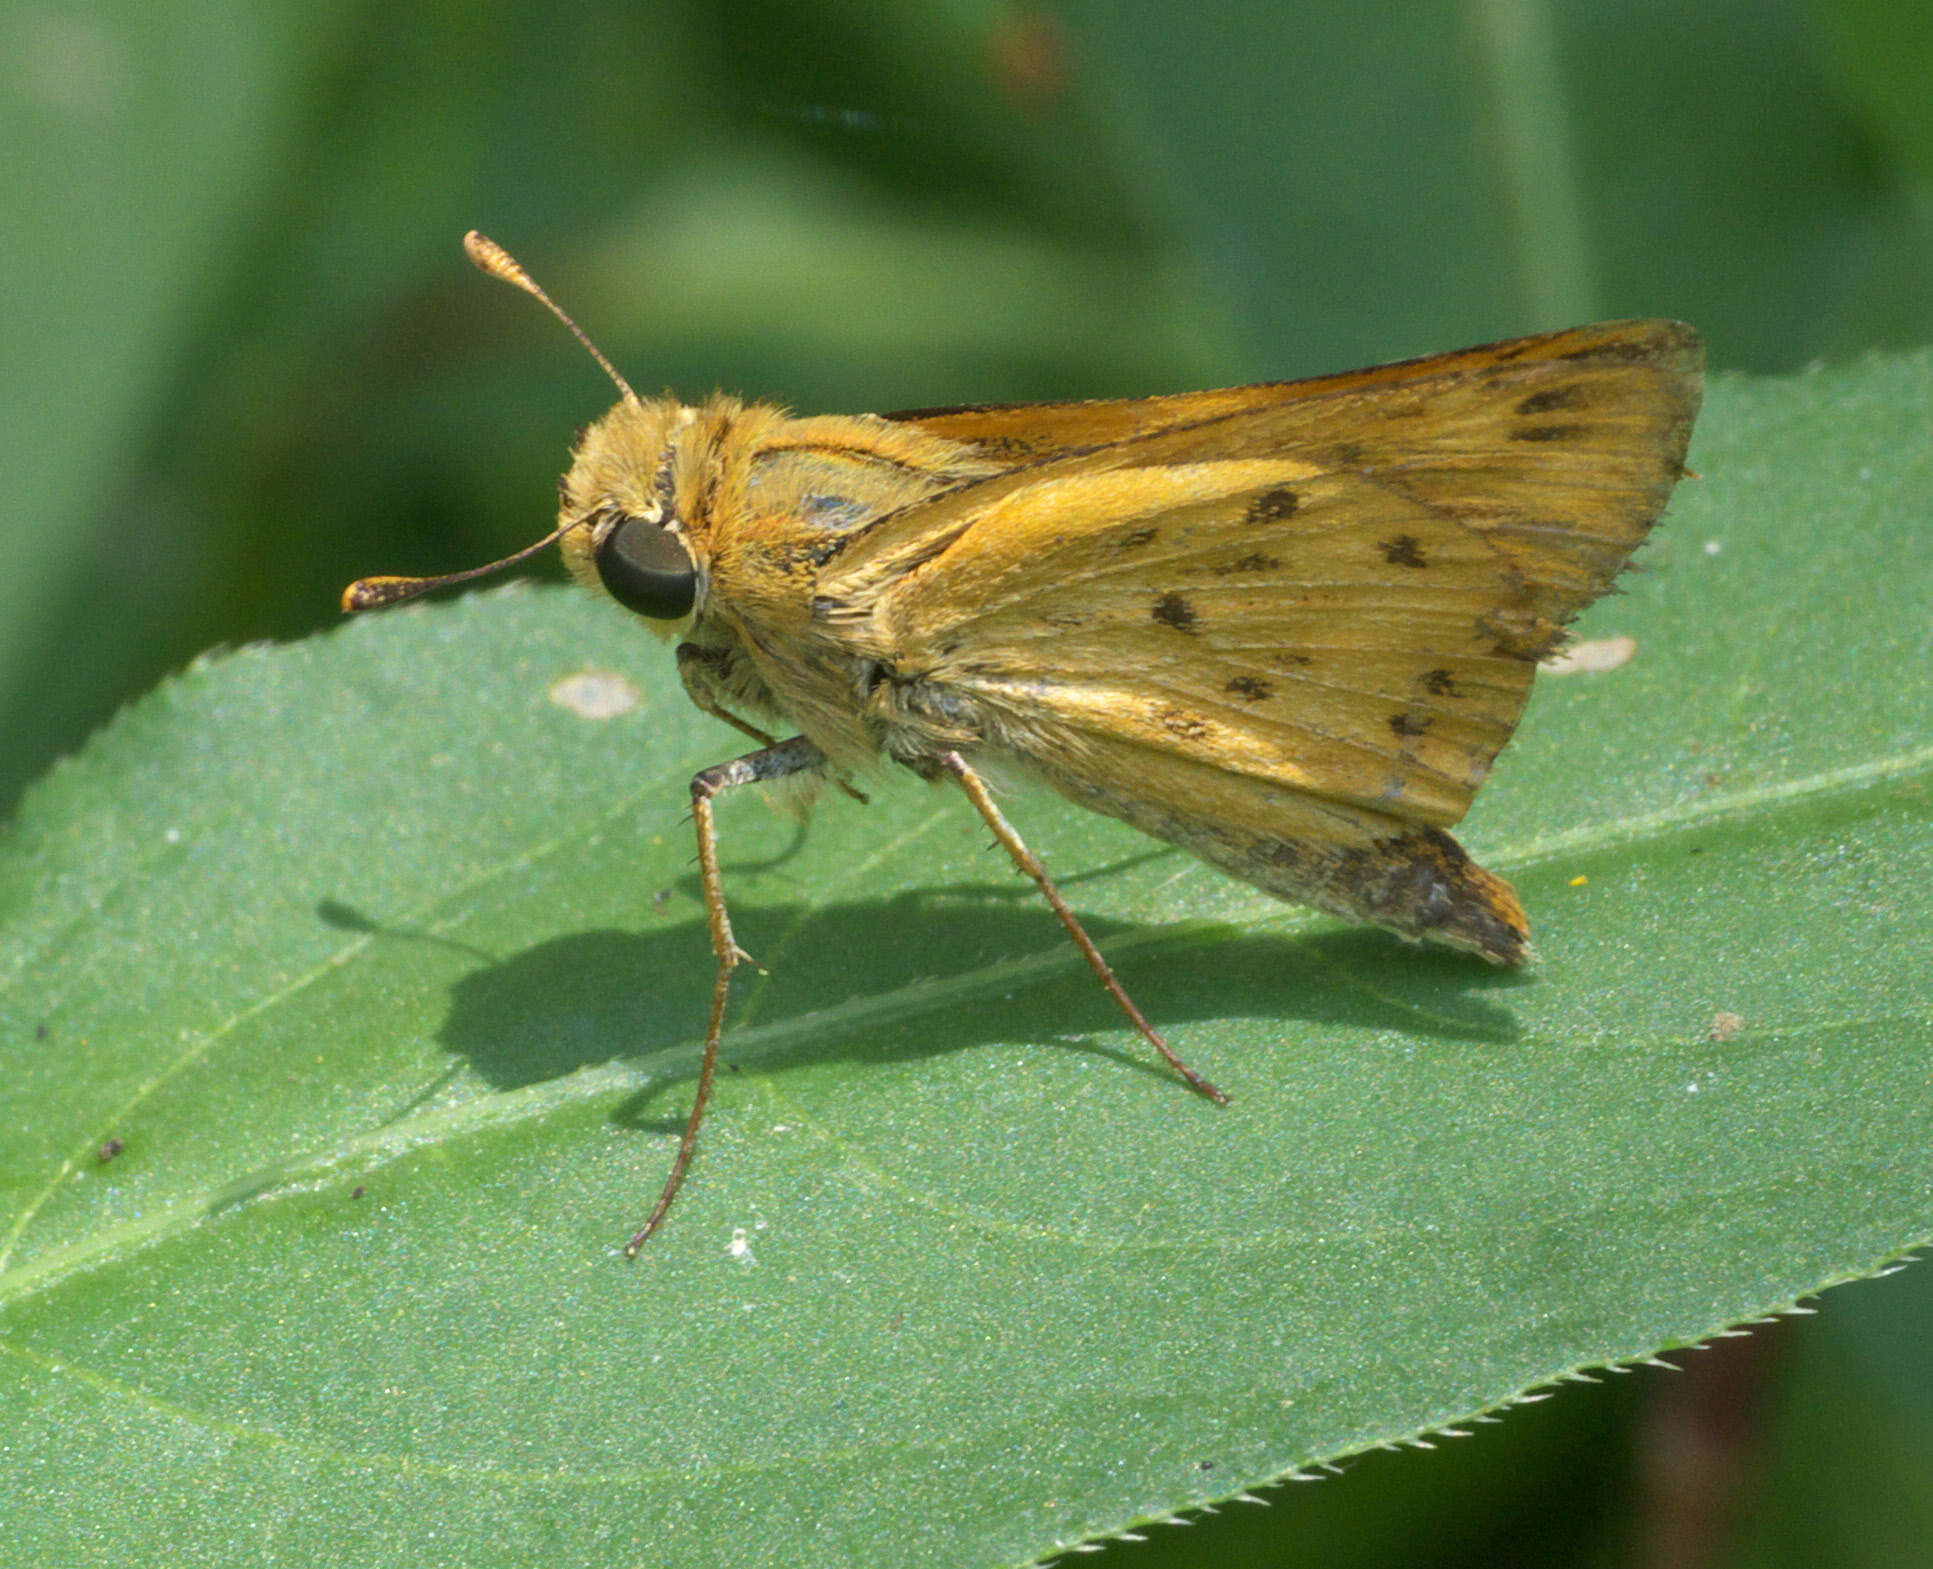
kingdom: Animalia
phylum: Arthropoda
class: Insecta
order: Lepidoptera
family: Hesperiidae
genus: Hylephila
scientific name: Hylephila phyleus
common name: Fiery skipper
